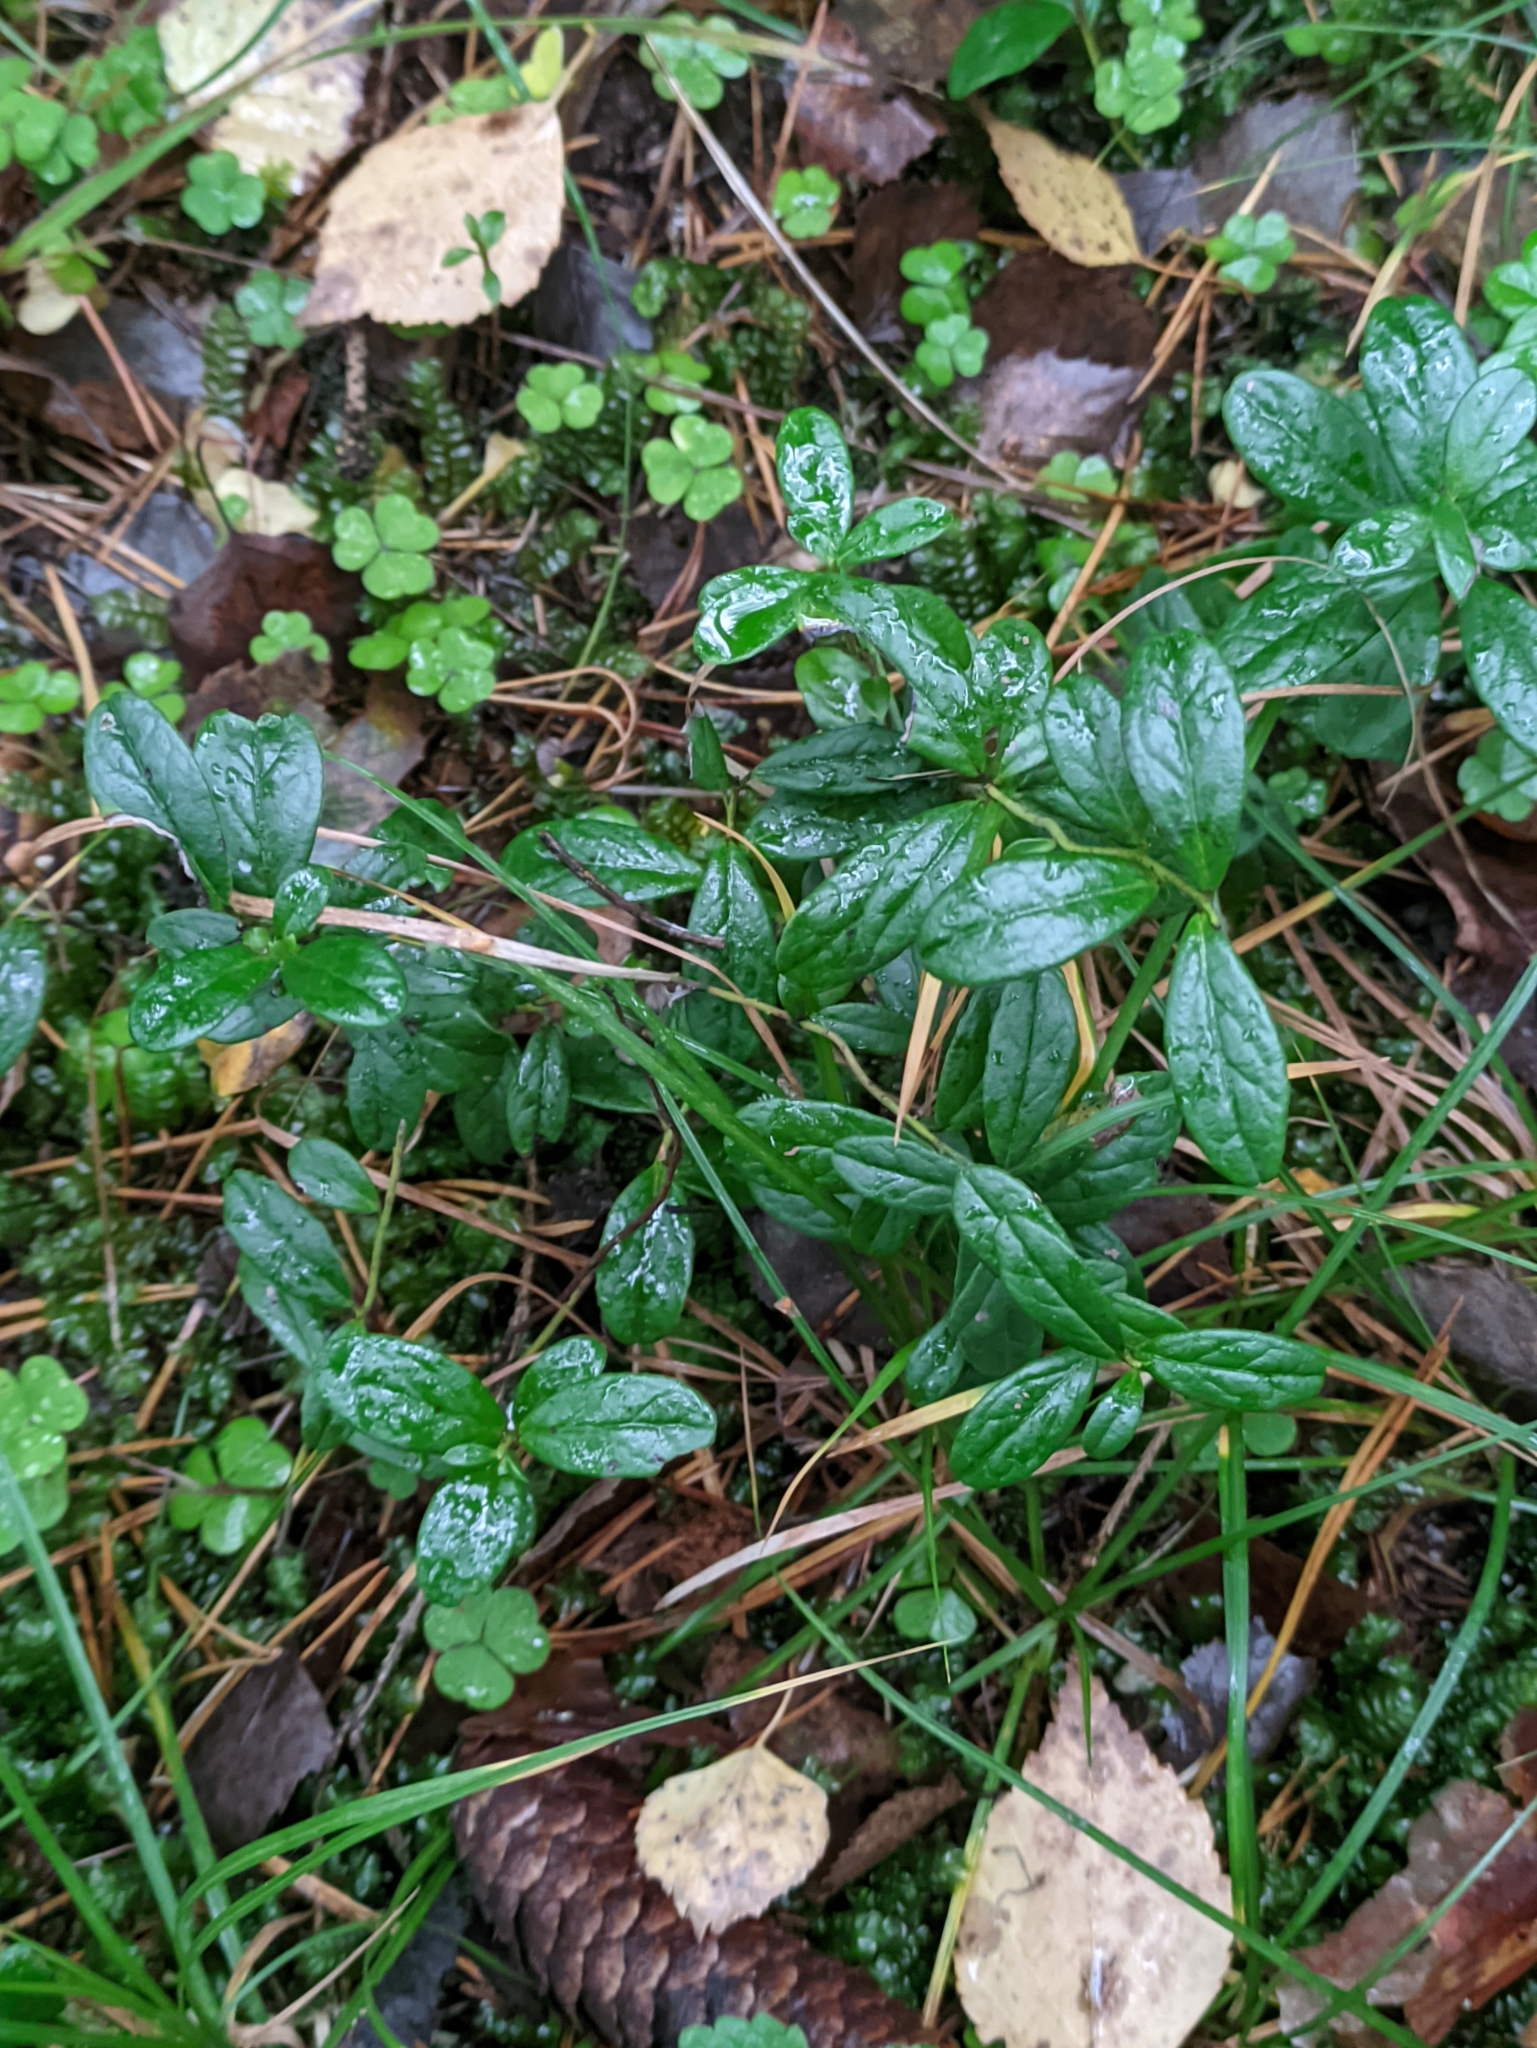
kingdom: Plantae
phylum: Tracheophyta
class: Magnoliopsida
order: Ericales
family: Ericaceae
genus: Vaccinium
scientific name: Vaccinium vitis-idaea
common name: Cowberry
